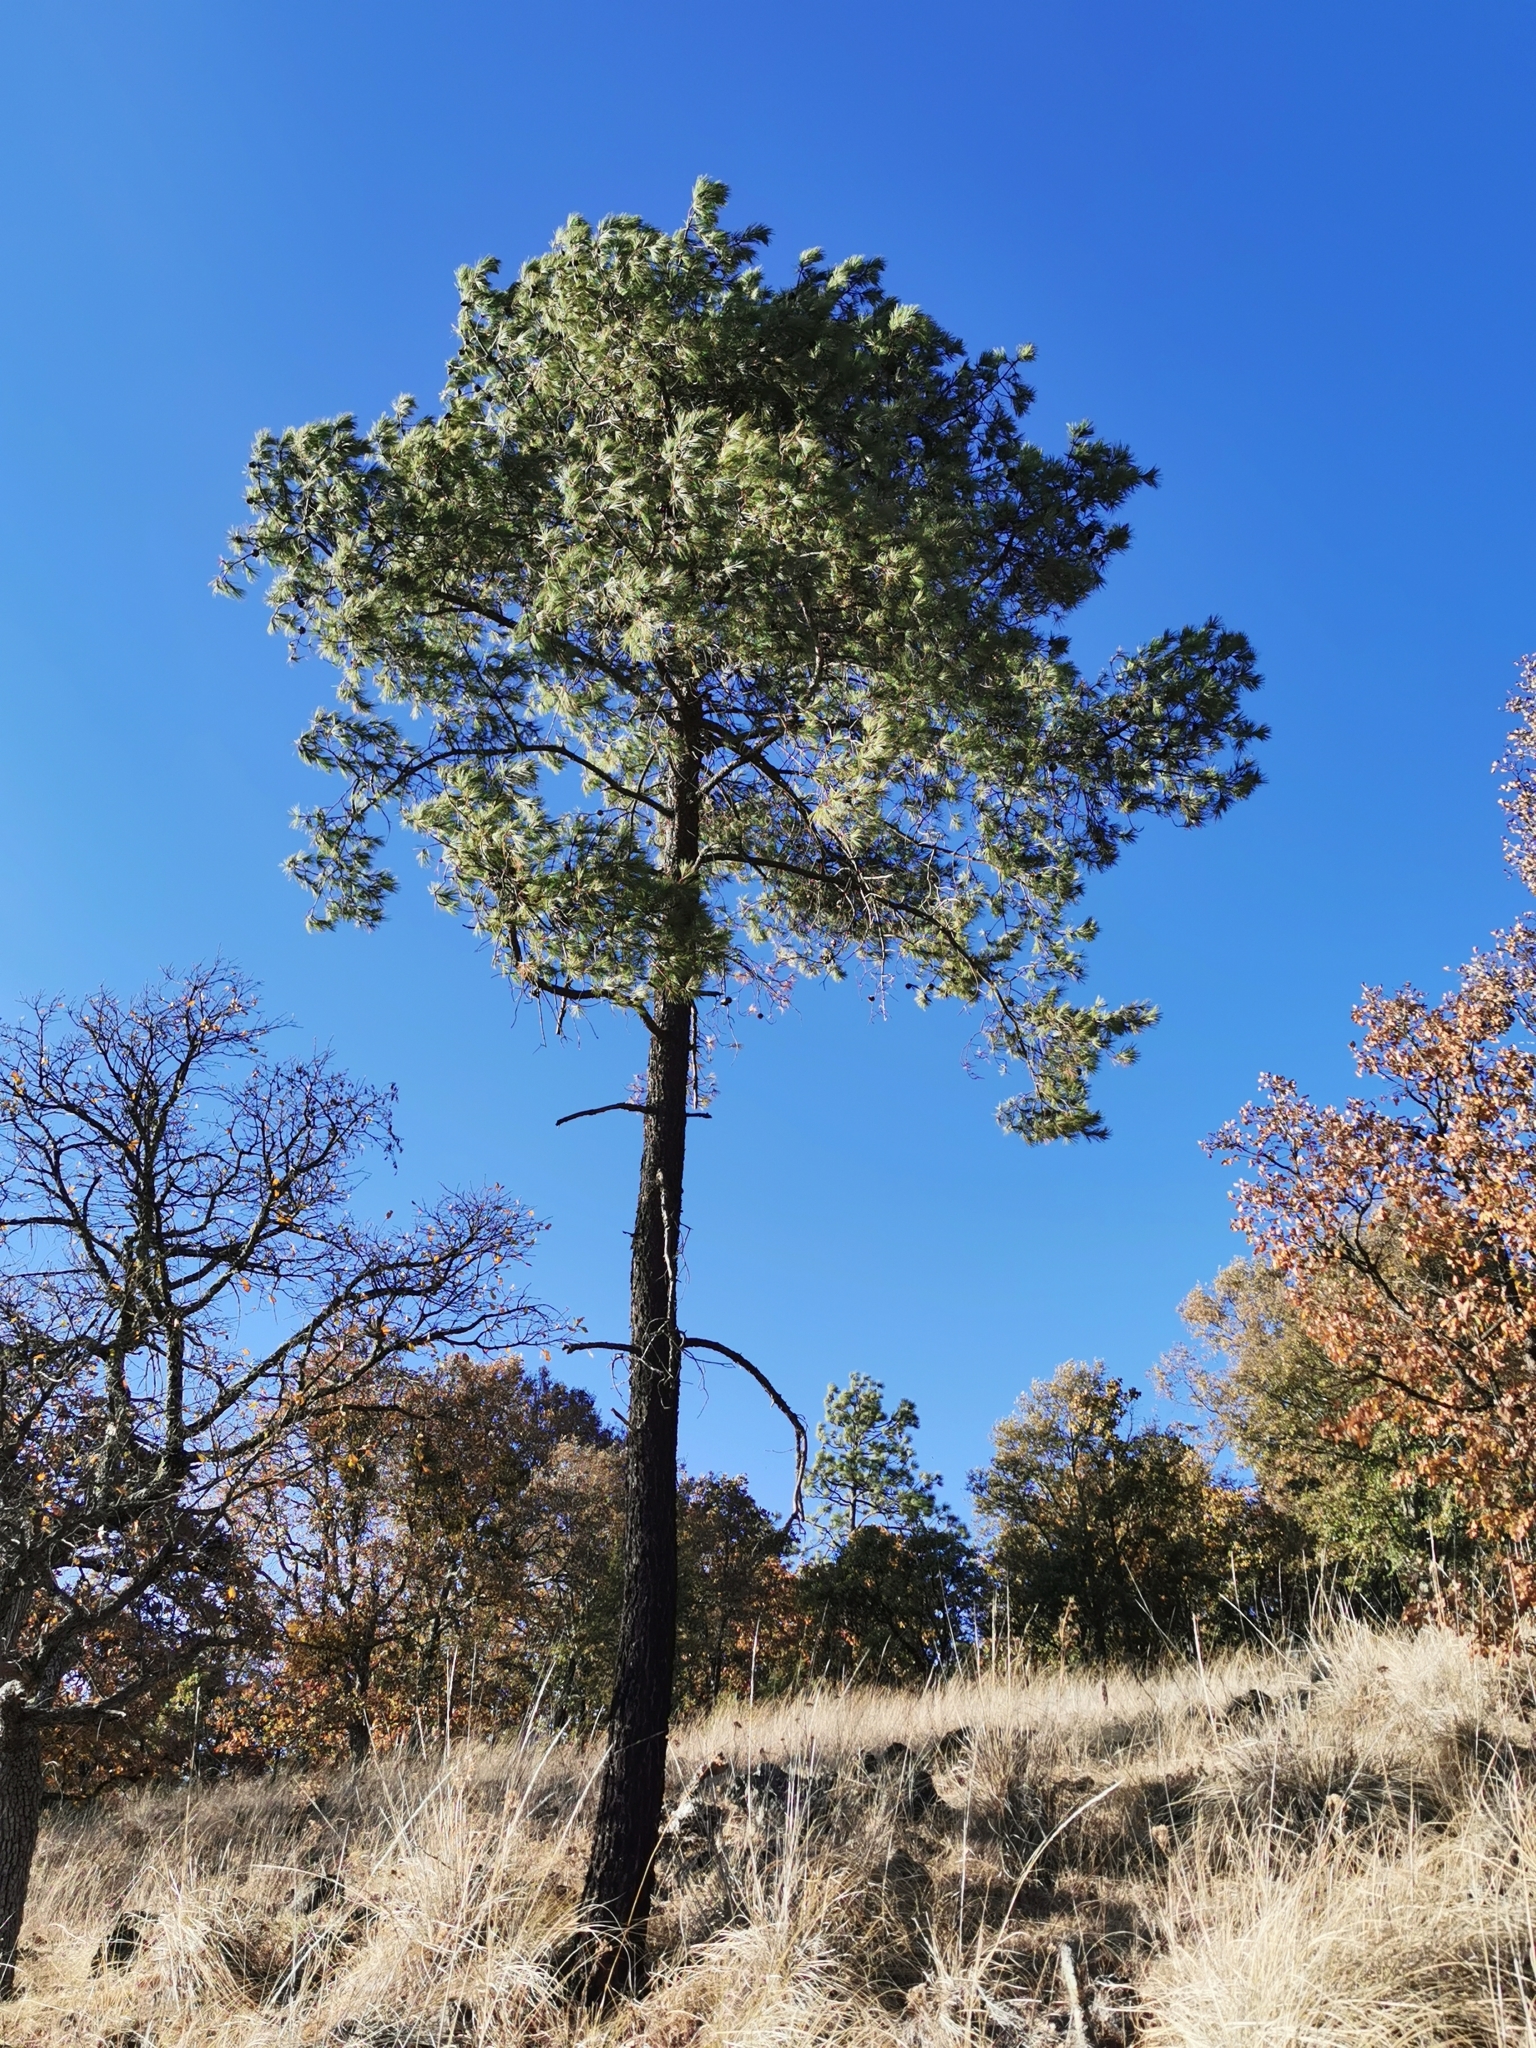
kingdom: Plantae
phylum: Tracheophyta
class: Pinopsida
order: Pinales
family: Pinaceae
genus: Pinus
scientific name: Pinus leiophylla
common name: Chihuahua pine
